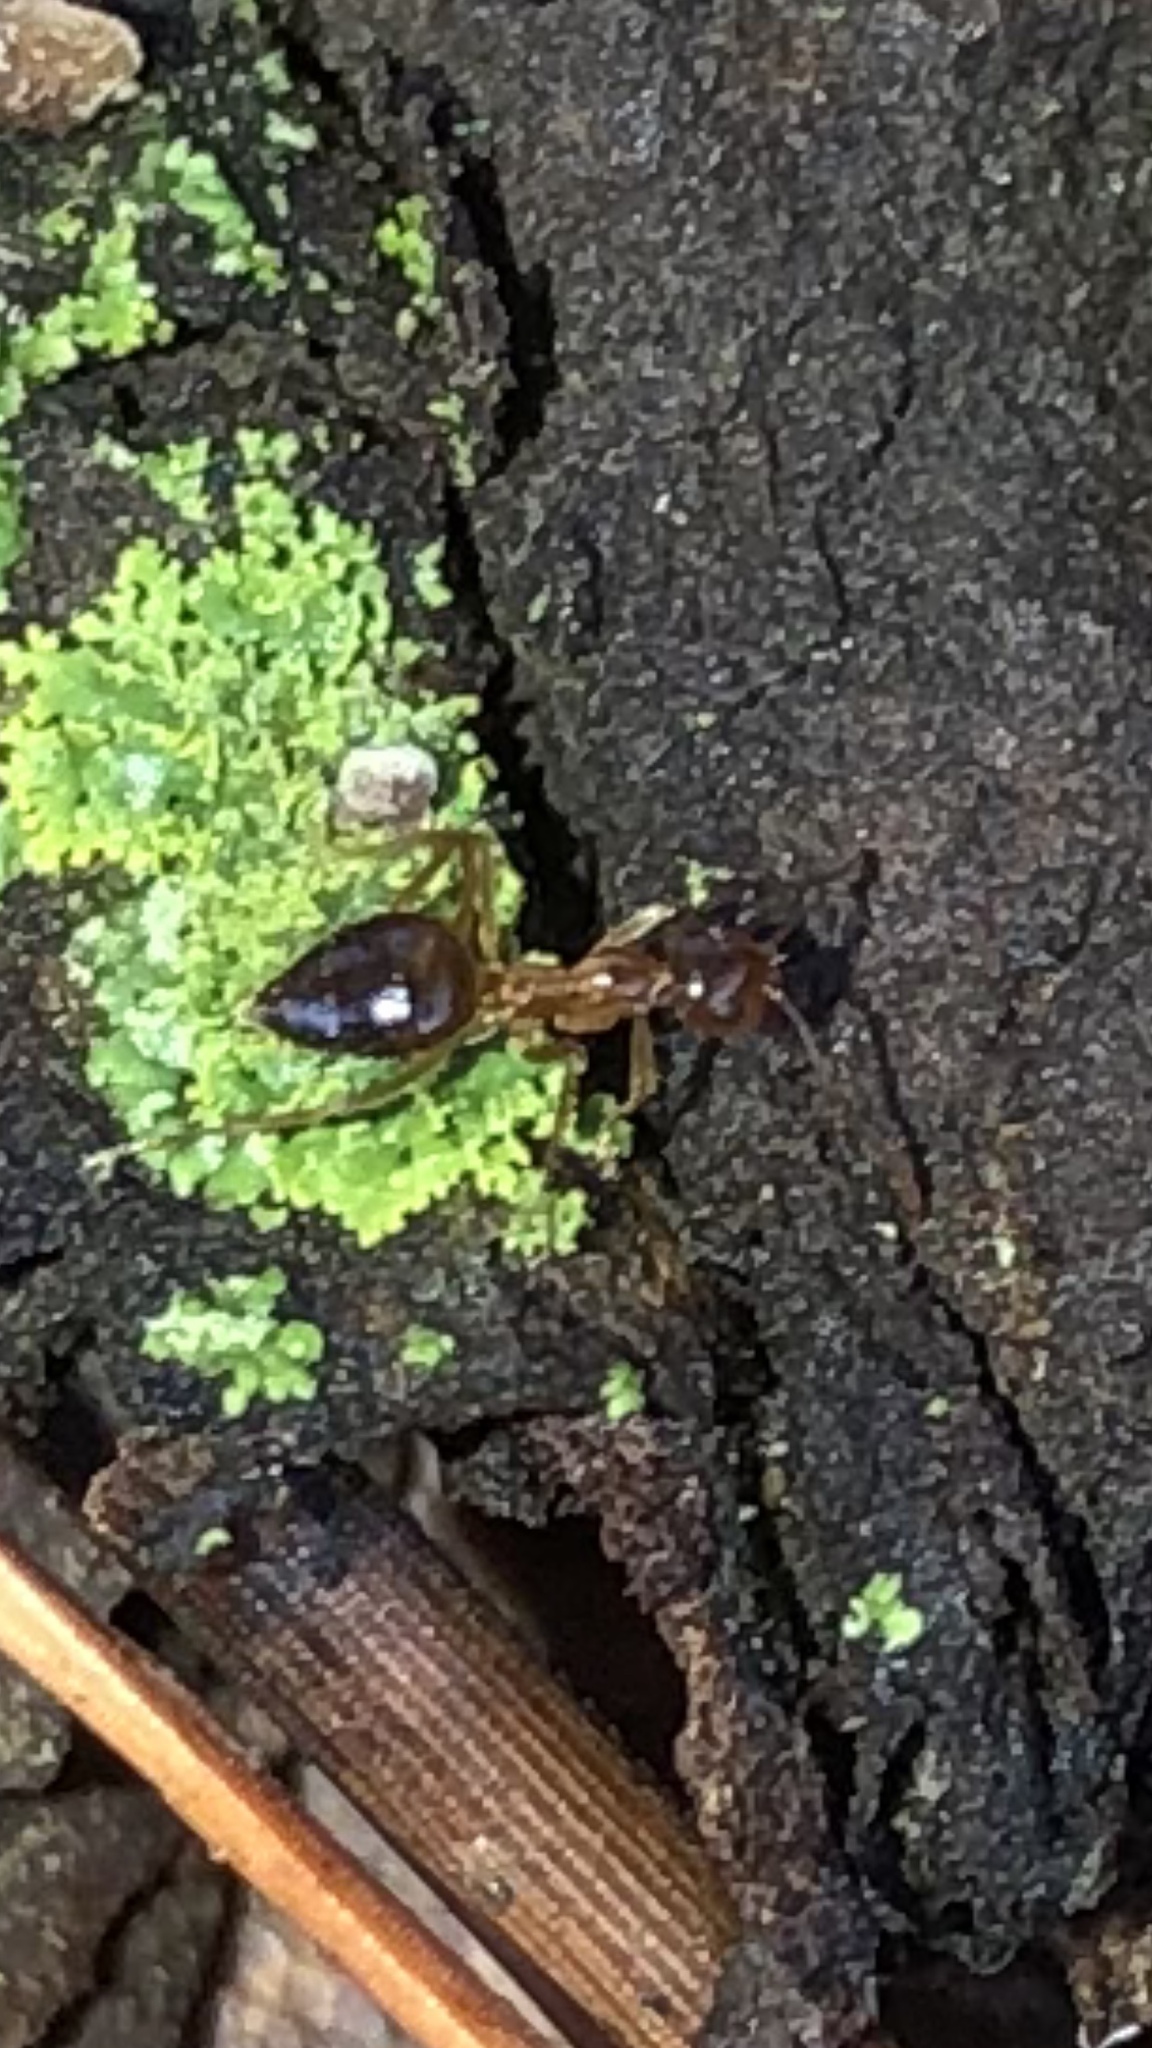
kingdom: Animalia
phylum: Arthropoda
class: Insecta
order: Hymenoptera
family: Formicidae
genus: Prenolepis
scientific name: Prenolepis imparis
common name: Small honey ant
